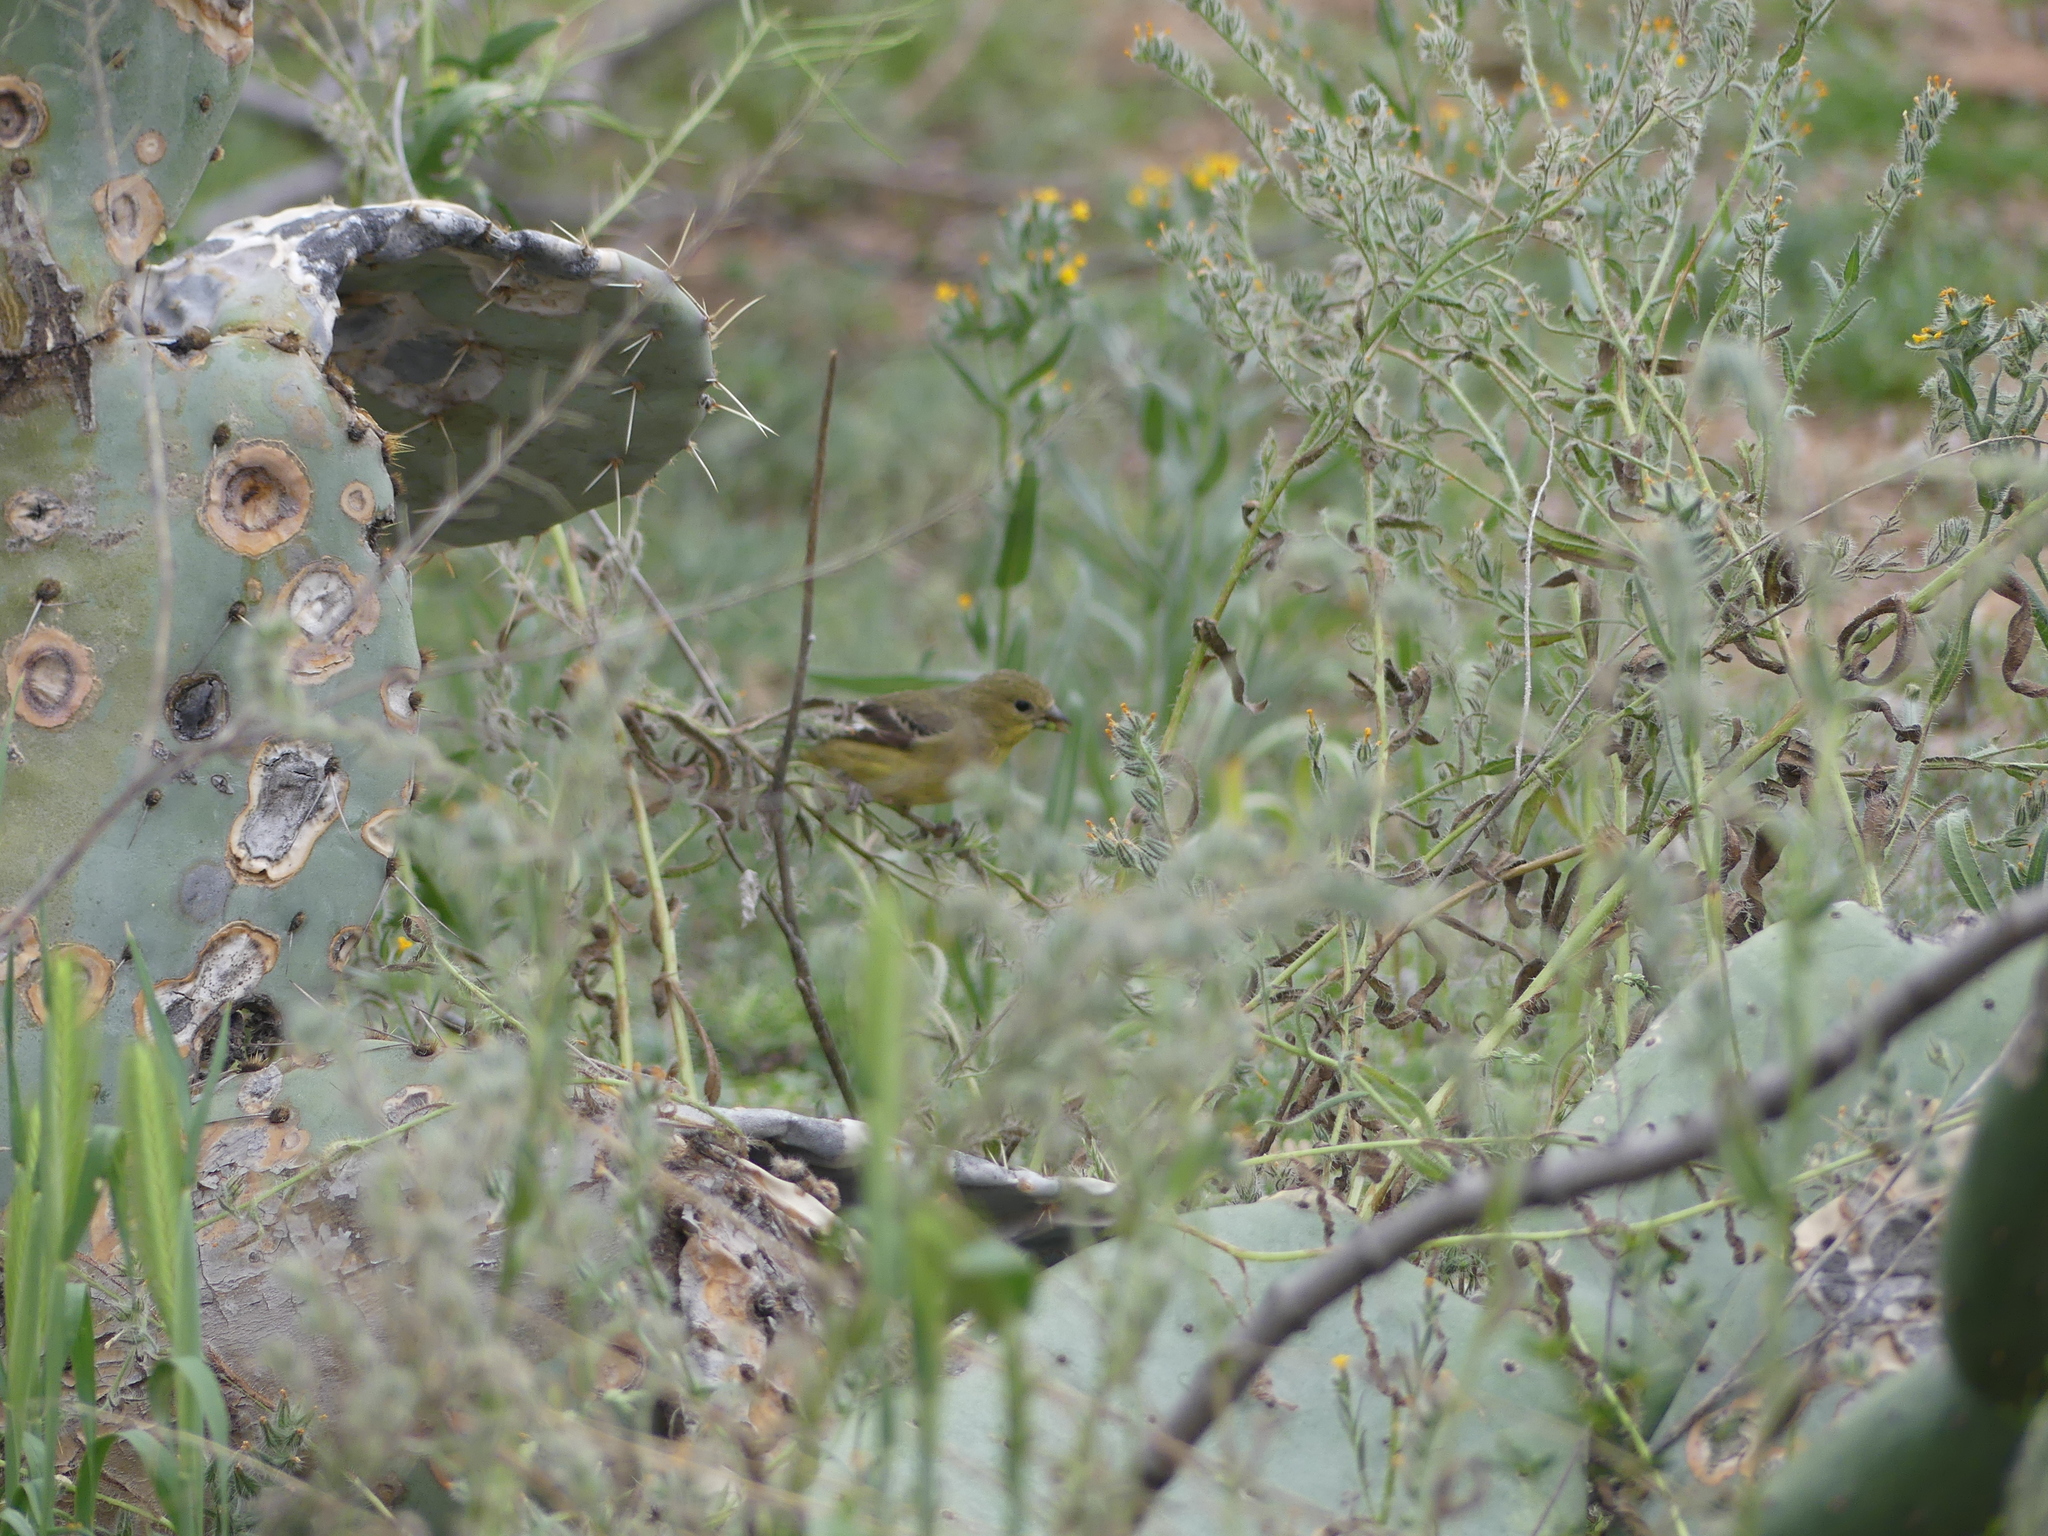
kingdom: Animalia
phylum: Chordata
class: Aves
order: Passeriformes
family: Fringillidae
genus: Spinus
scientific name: Spinus psaltria
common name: Lesser goldfinch
